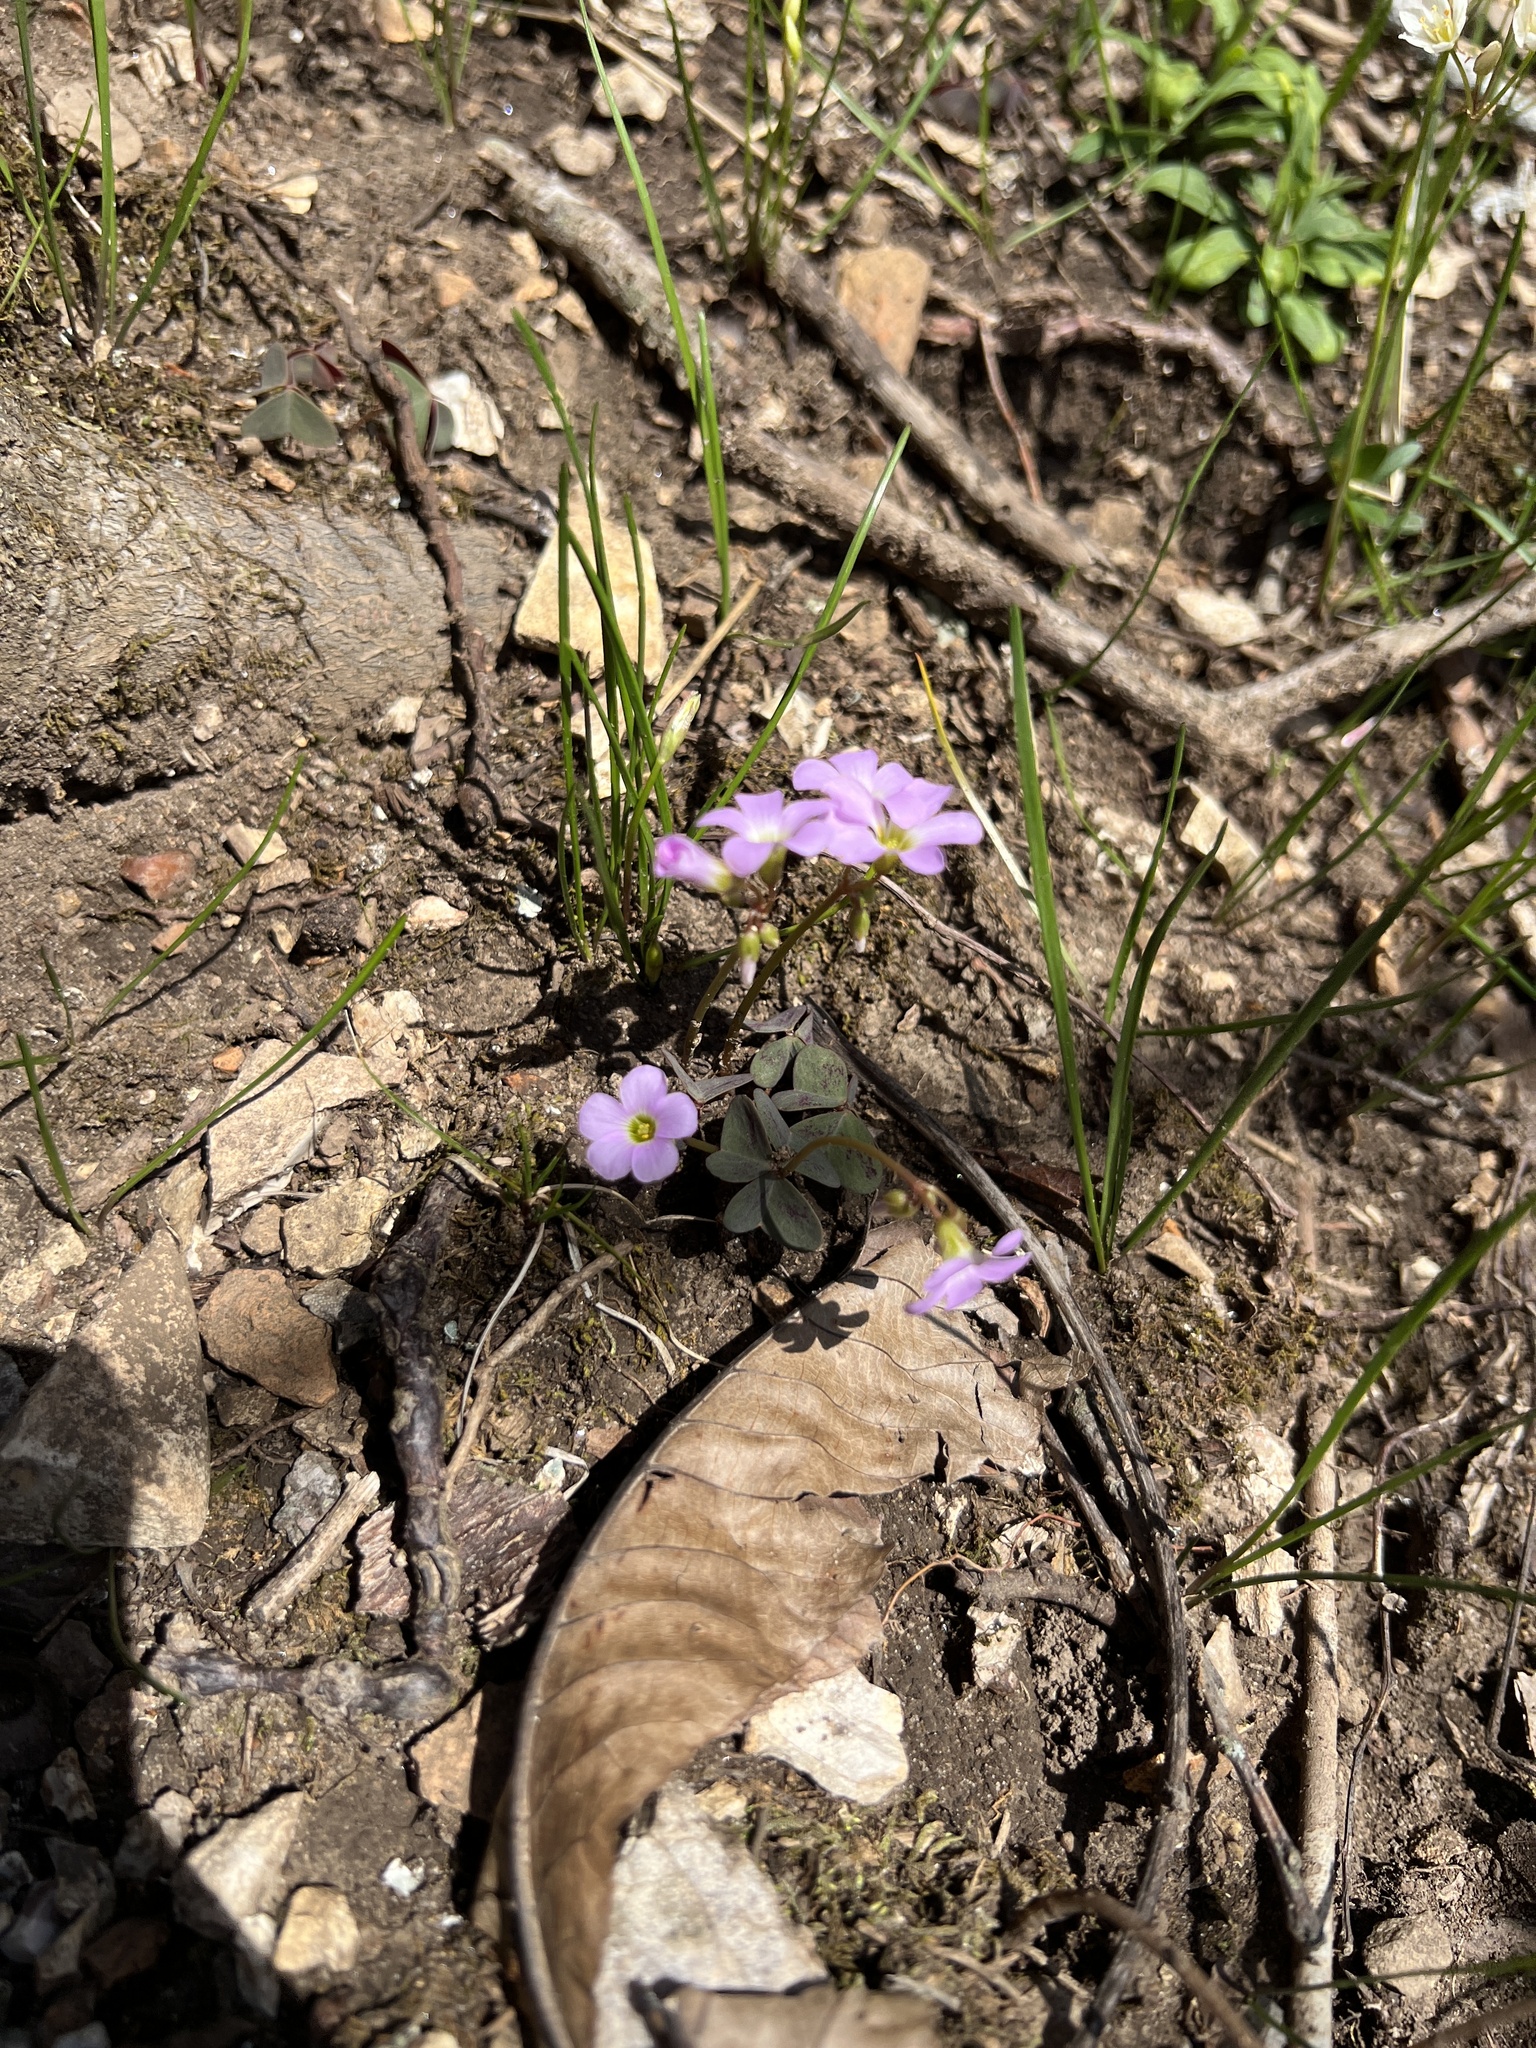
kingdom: Plantae
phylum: Tracheophyta
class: Magnoliopsida
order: Oxalidales
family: Oxalidaceae
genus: Oxalis
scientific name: Oxalis violacea
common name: Violet wood-sorrel
